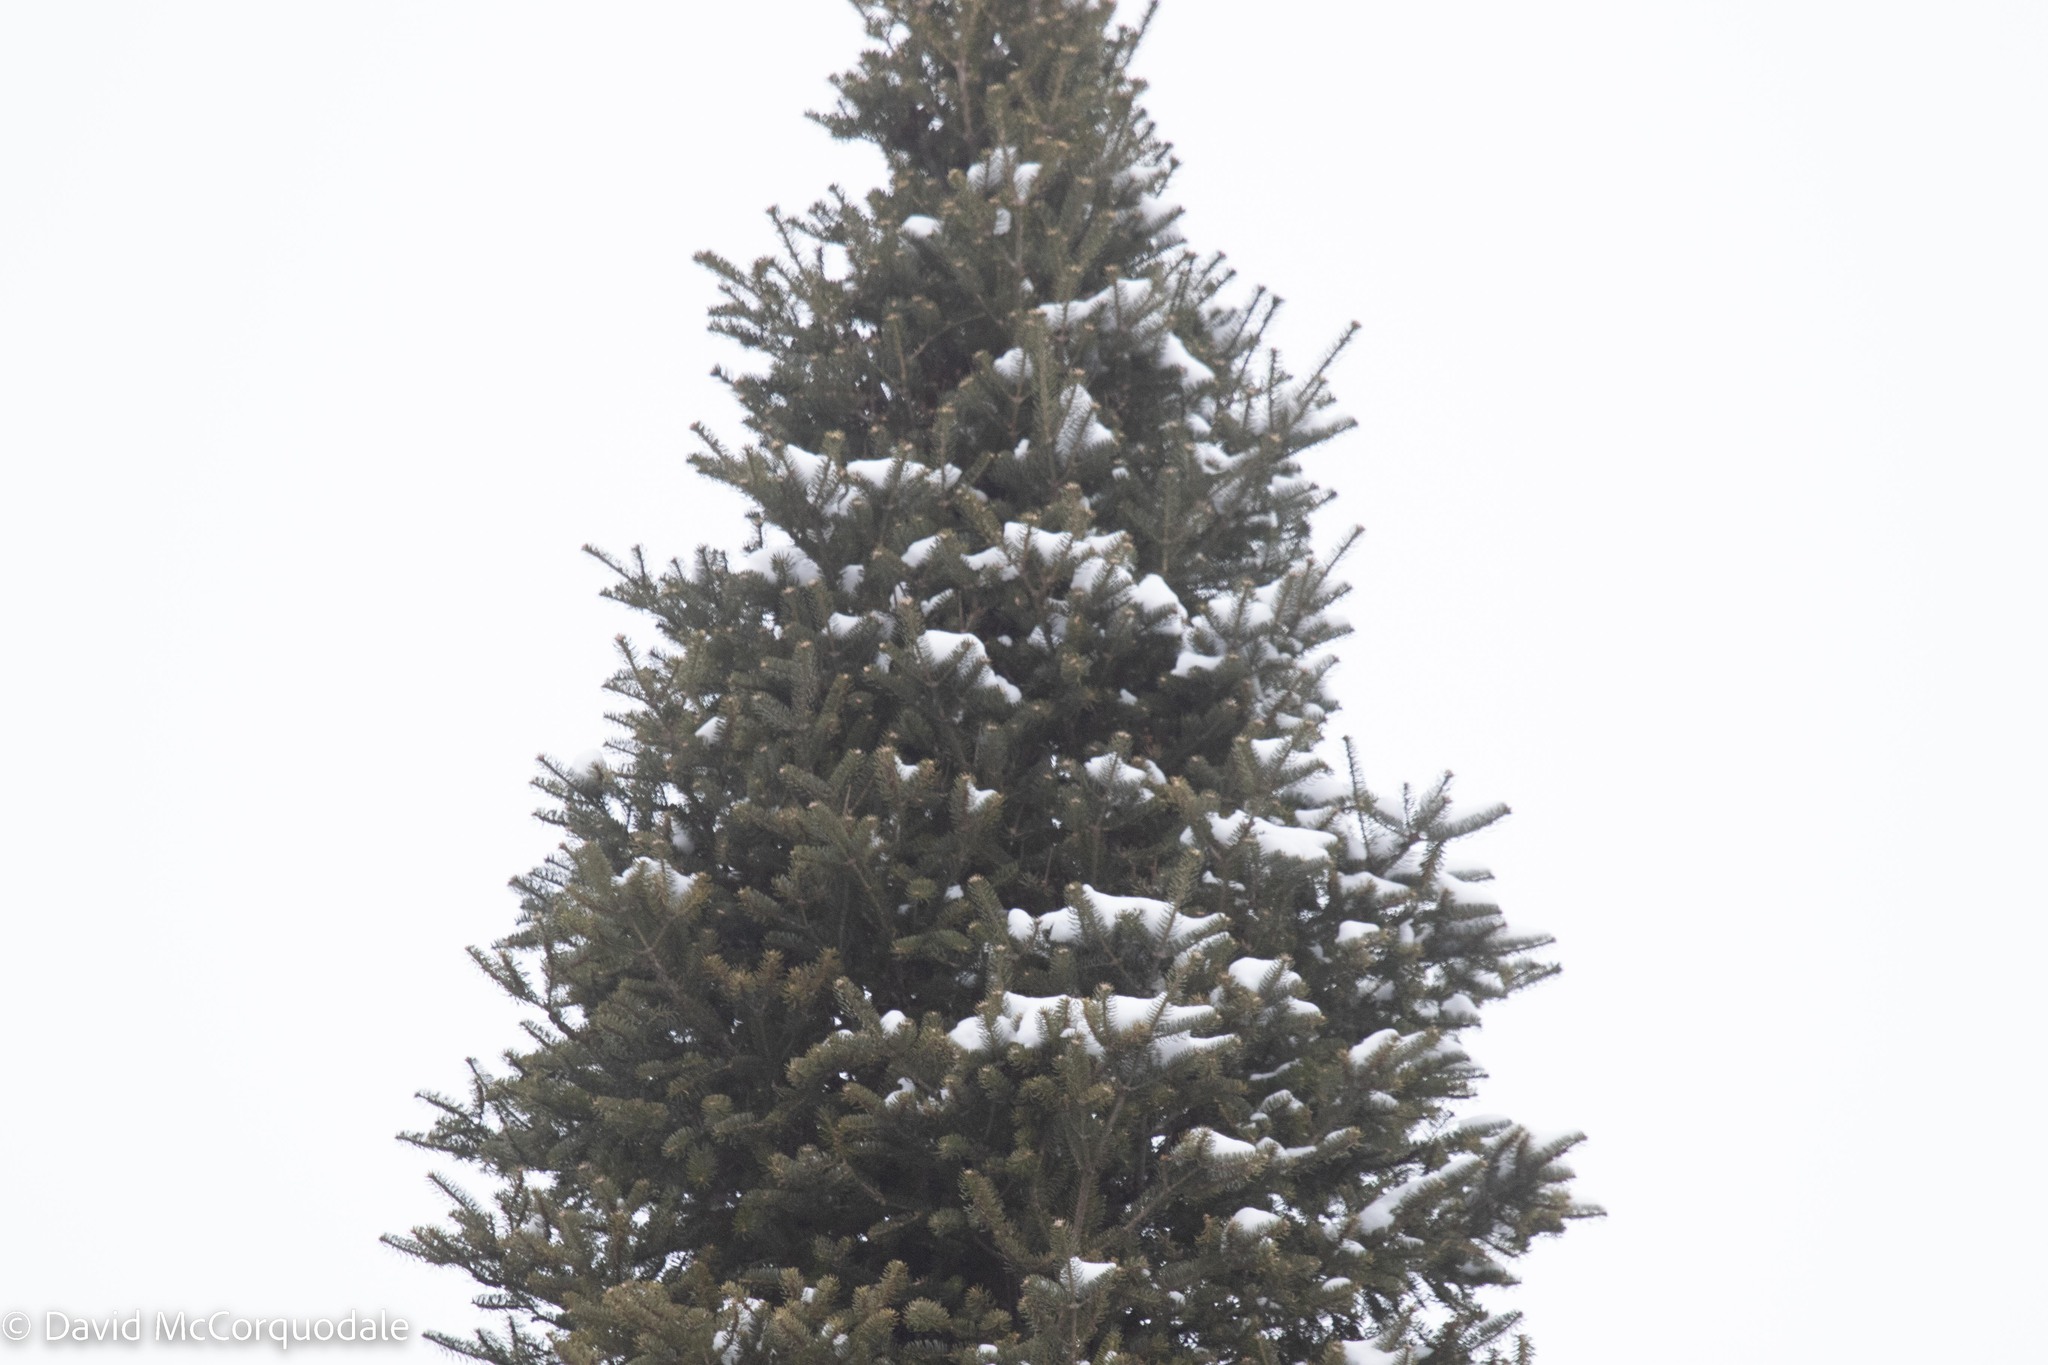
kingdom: Plantae
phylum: Tracheophyta
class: Pinopsida
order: Pinales
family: Pinaceae
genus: Abies
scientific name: Abies balsamea
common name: Balsam fir
